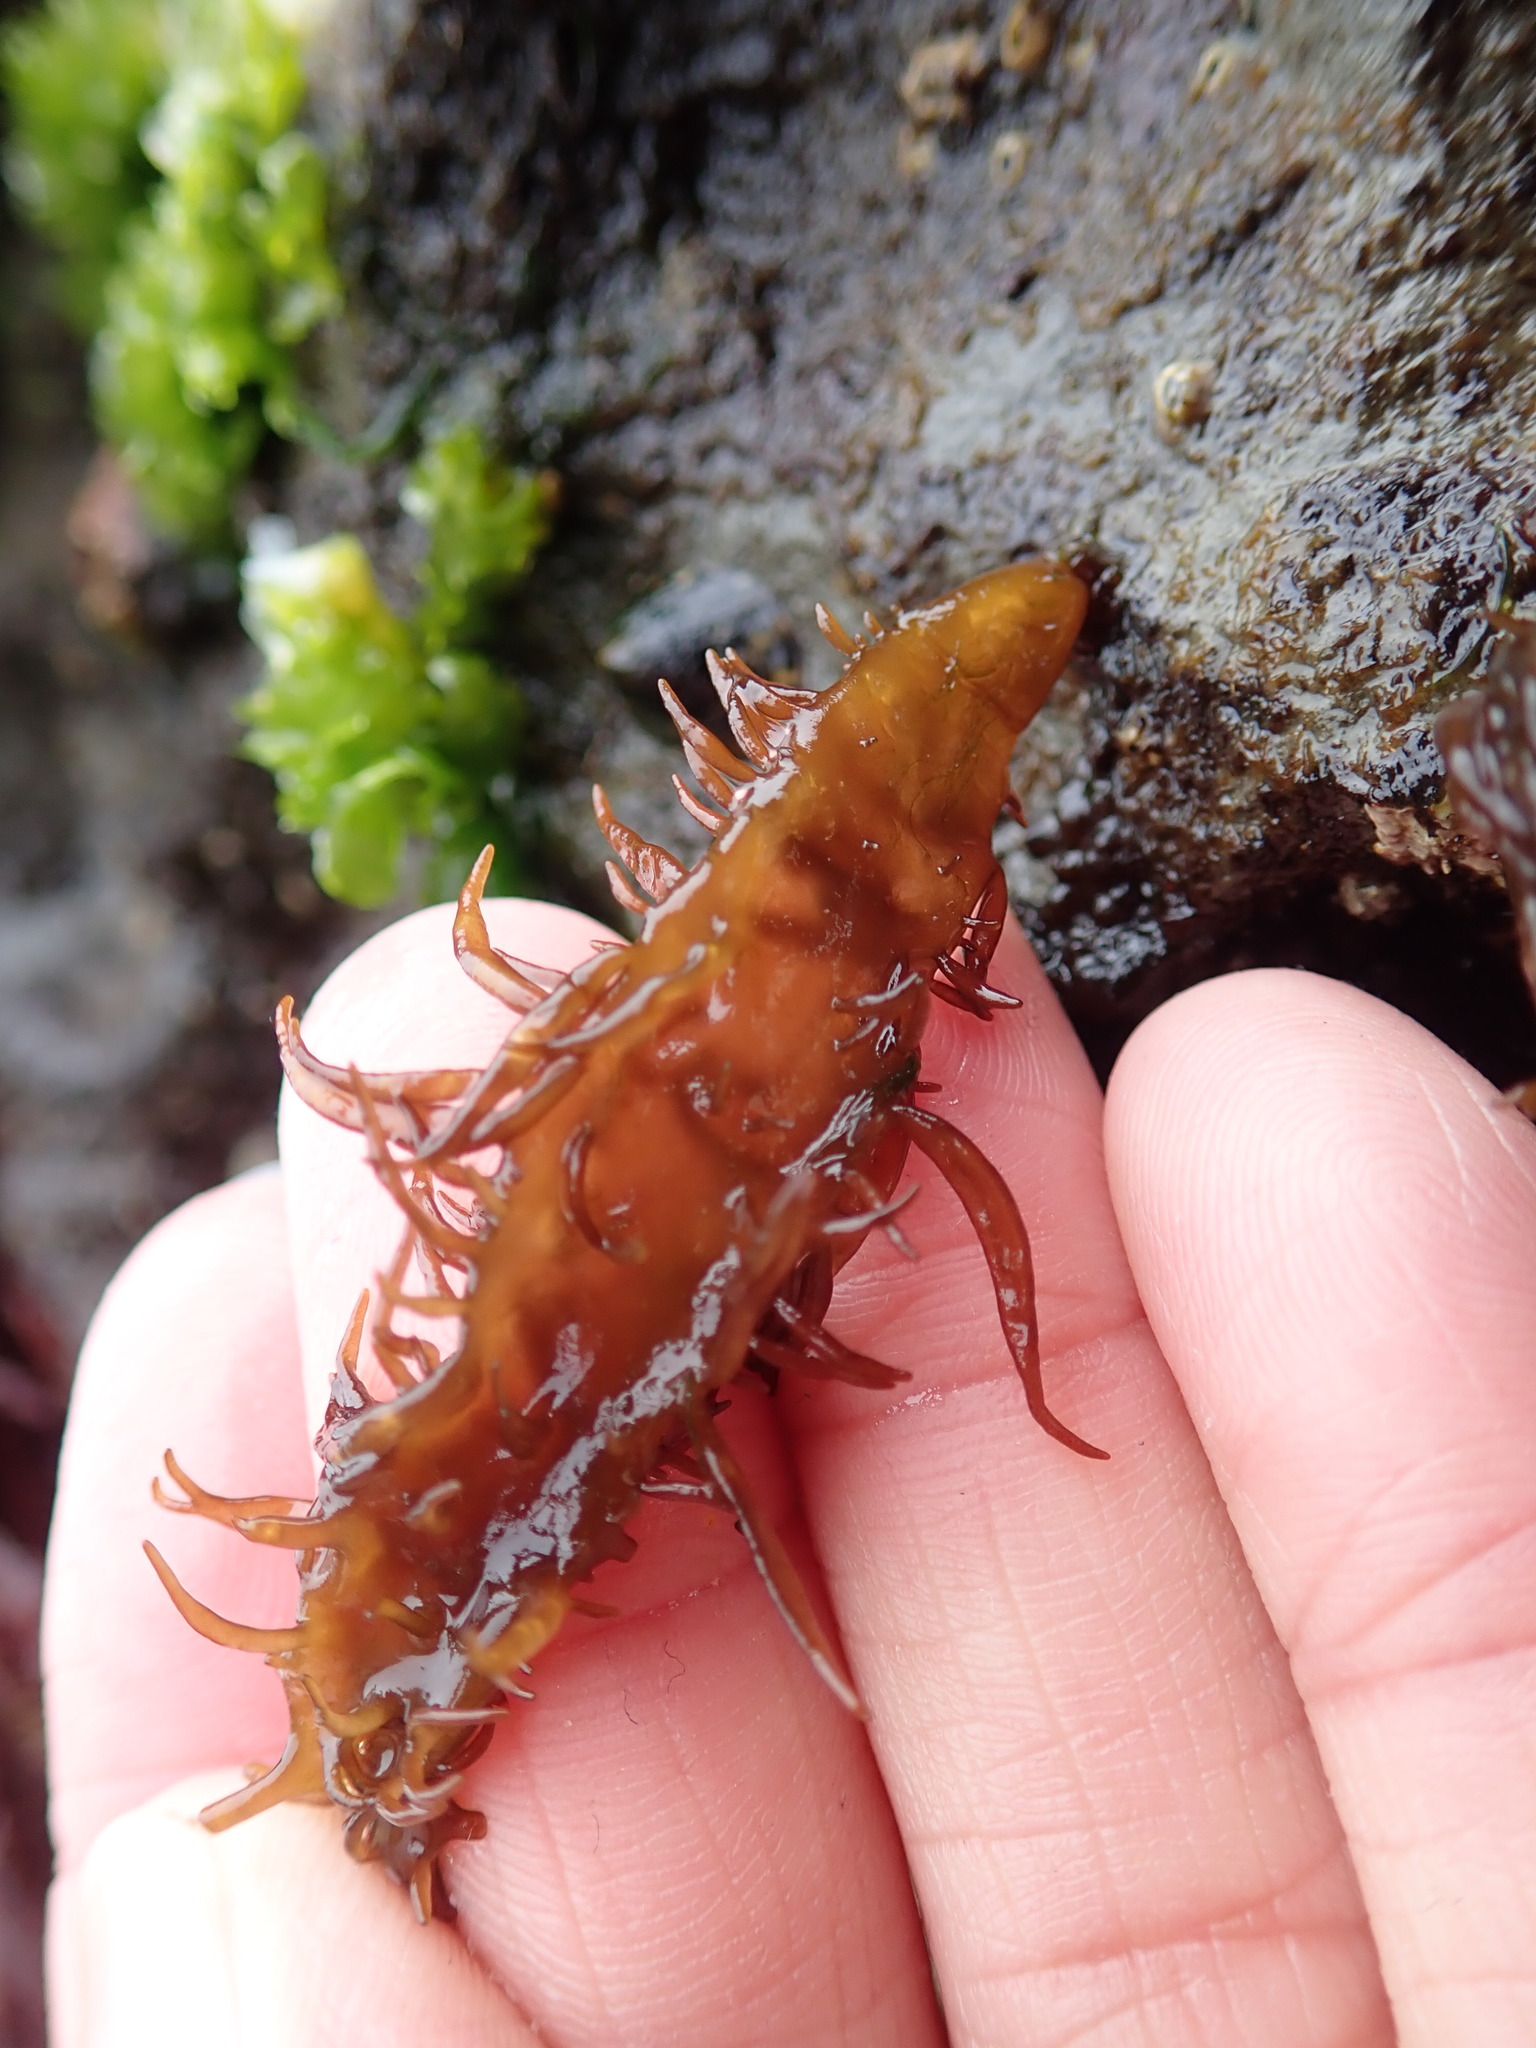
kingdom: Plantae
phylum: Rhodophyta
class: Florideophyceae
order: Nemaliales
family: Liagoraceae
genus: Cumagloia
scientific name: Cumagloia andersonii
